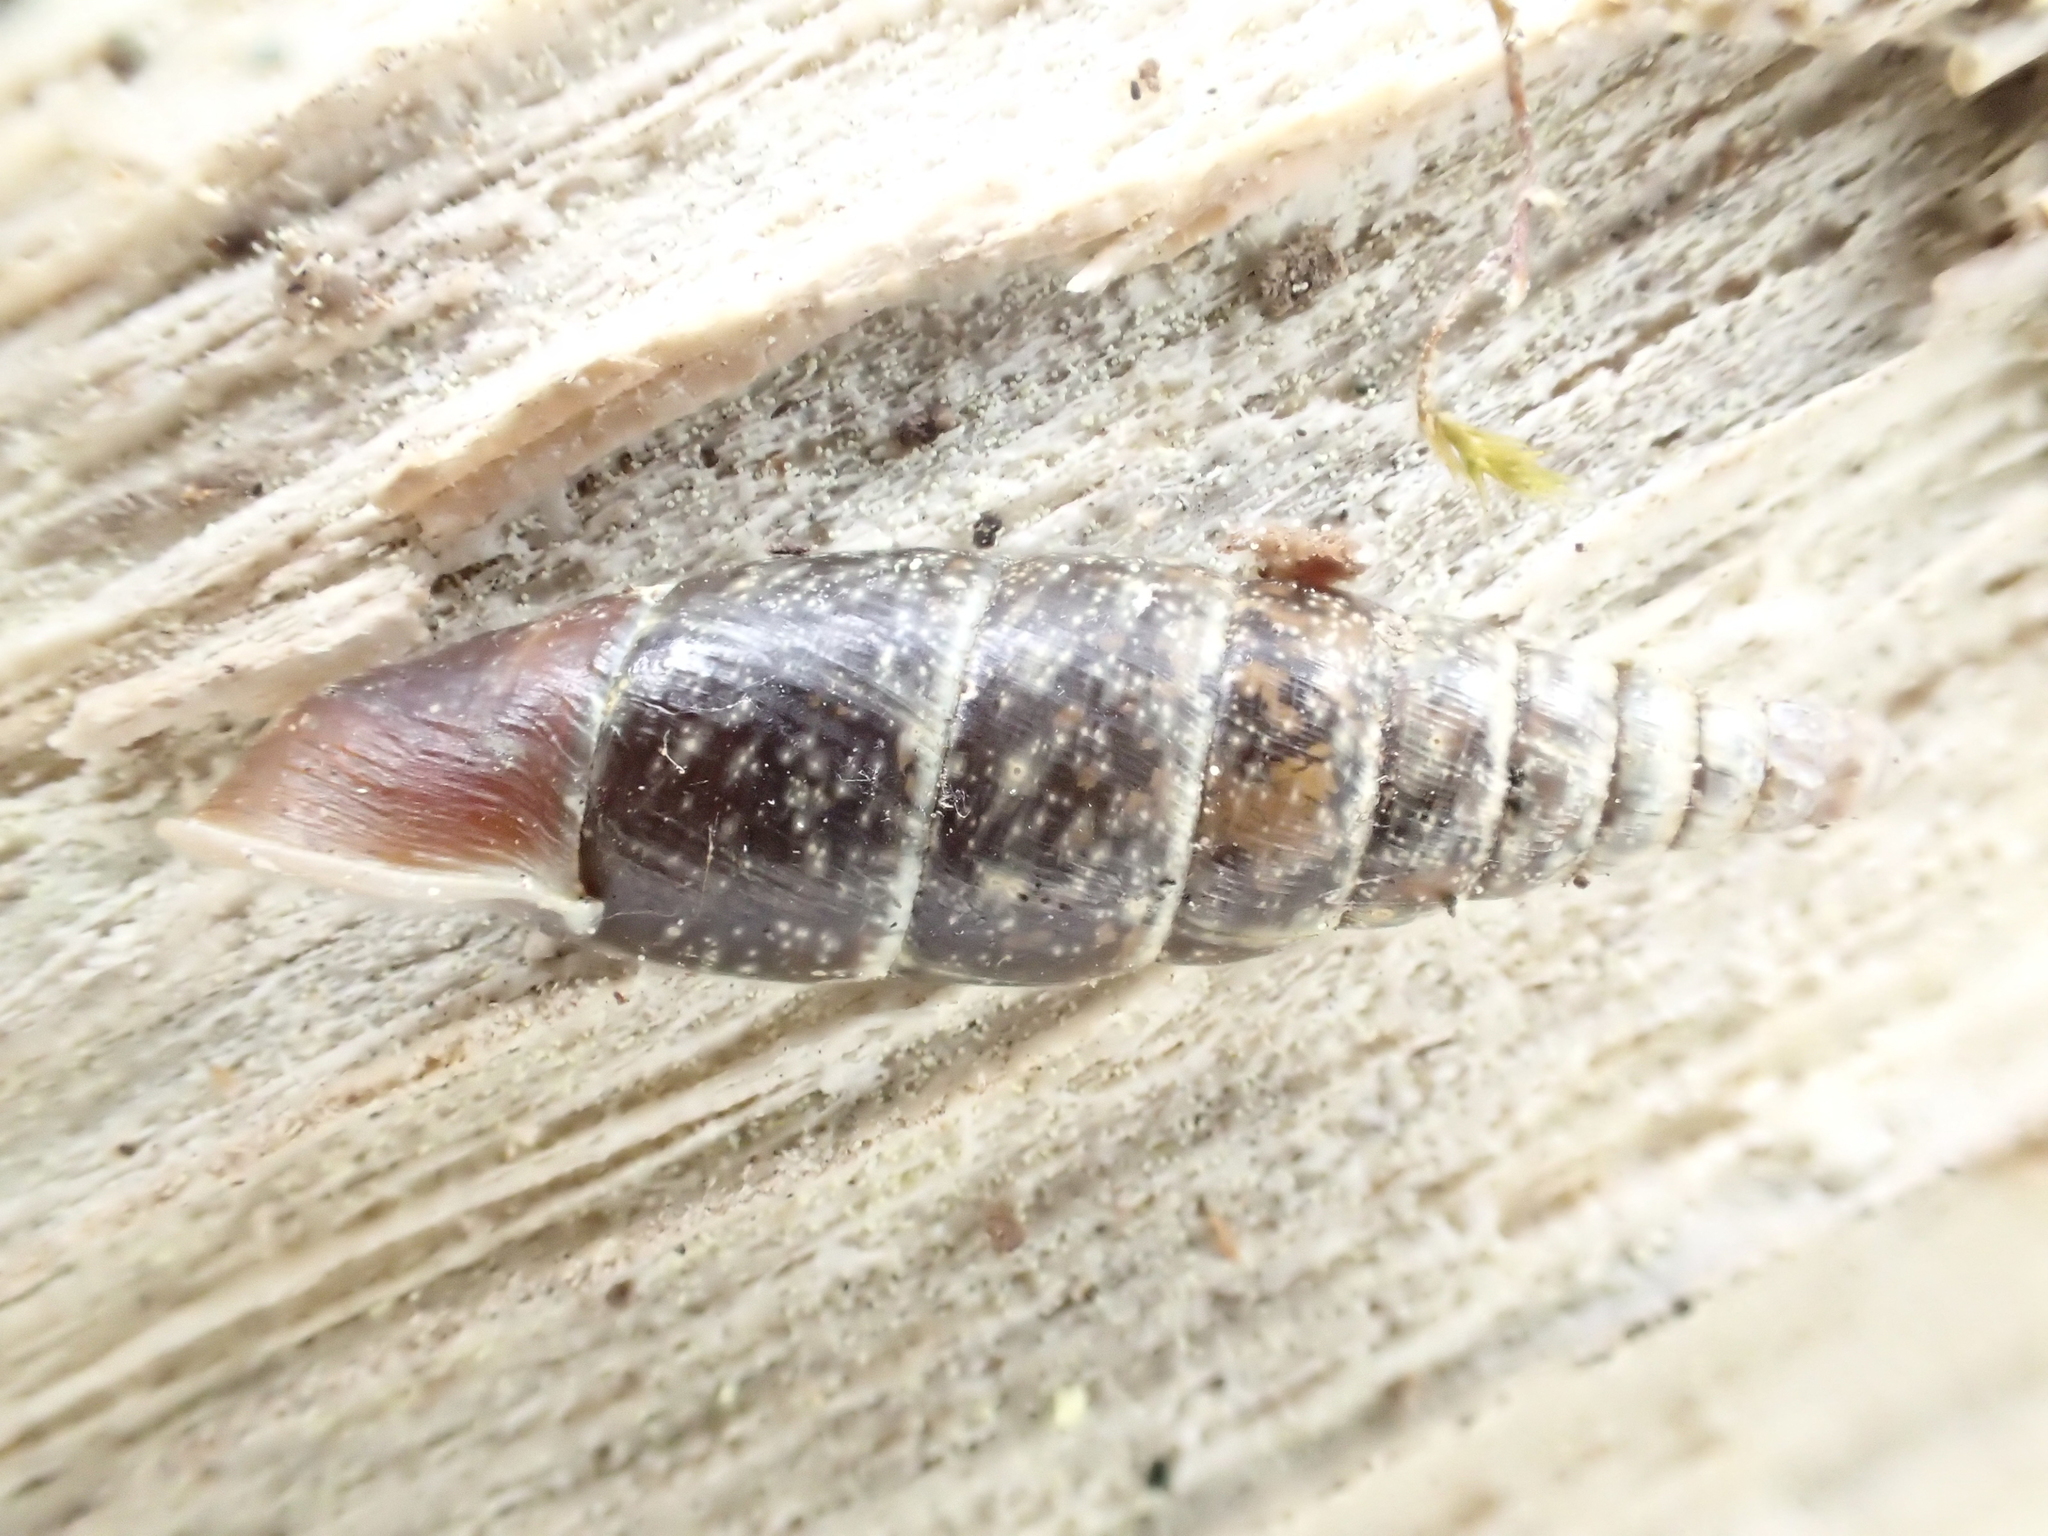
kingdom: Animalia
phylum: Mollusca
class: Gastropoda
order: Stylommatophora
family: Clausiliidae
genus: Cochlodina
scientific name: Cochlodina laminata
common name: Plaited door snail
